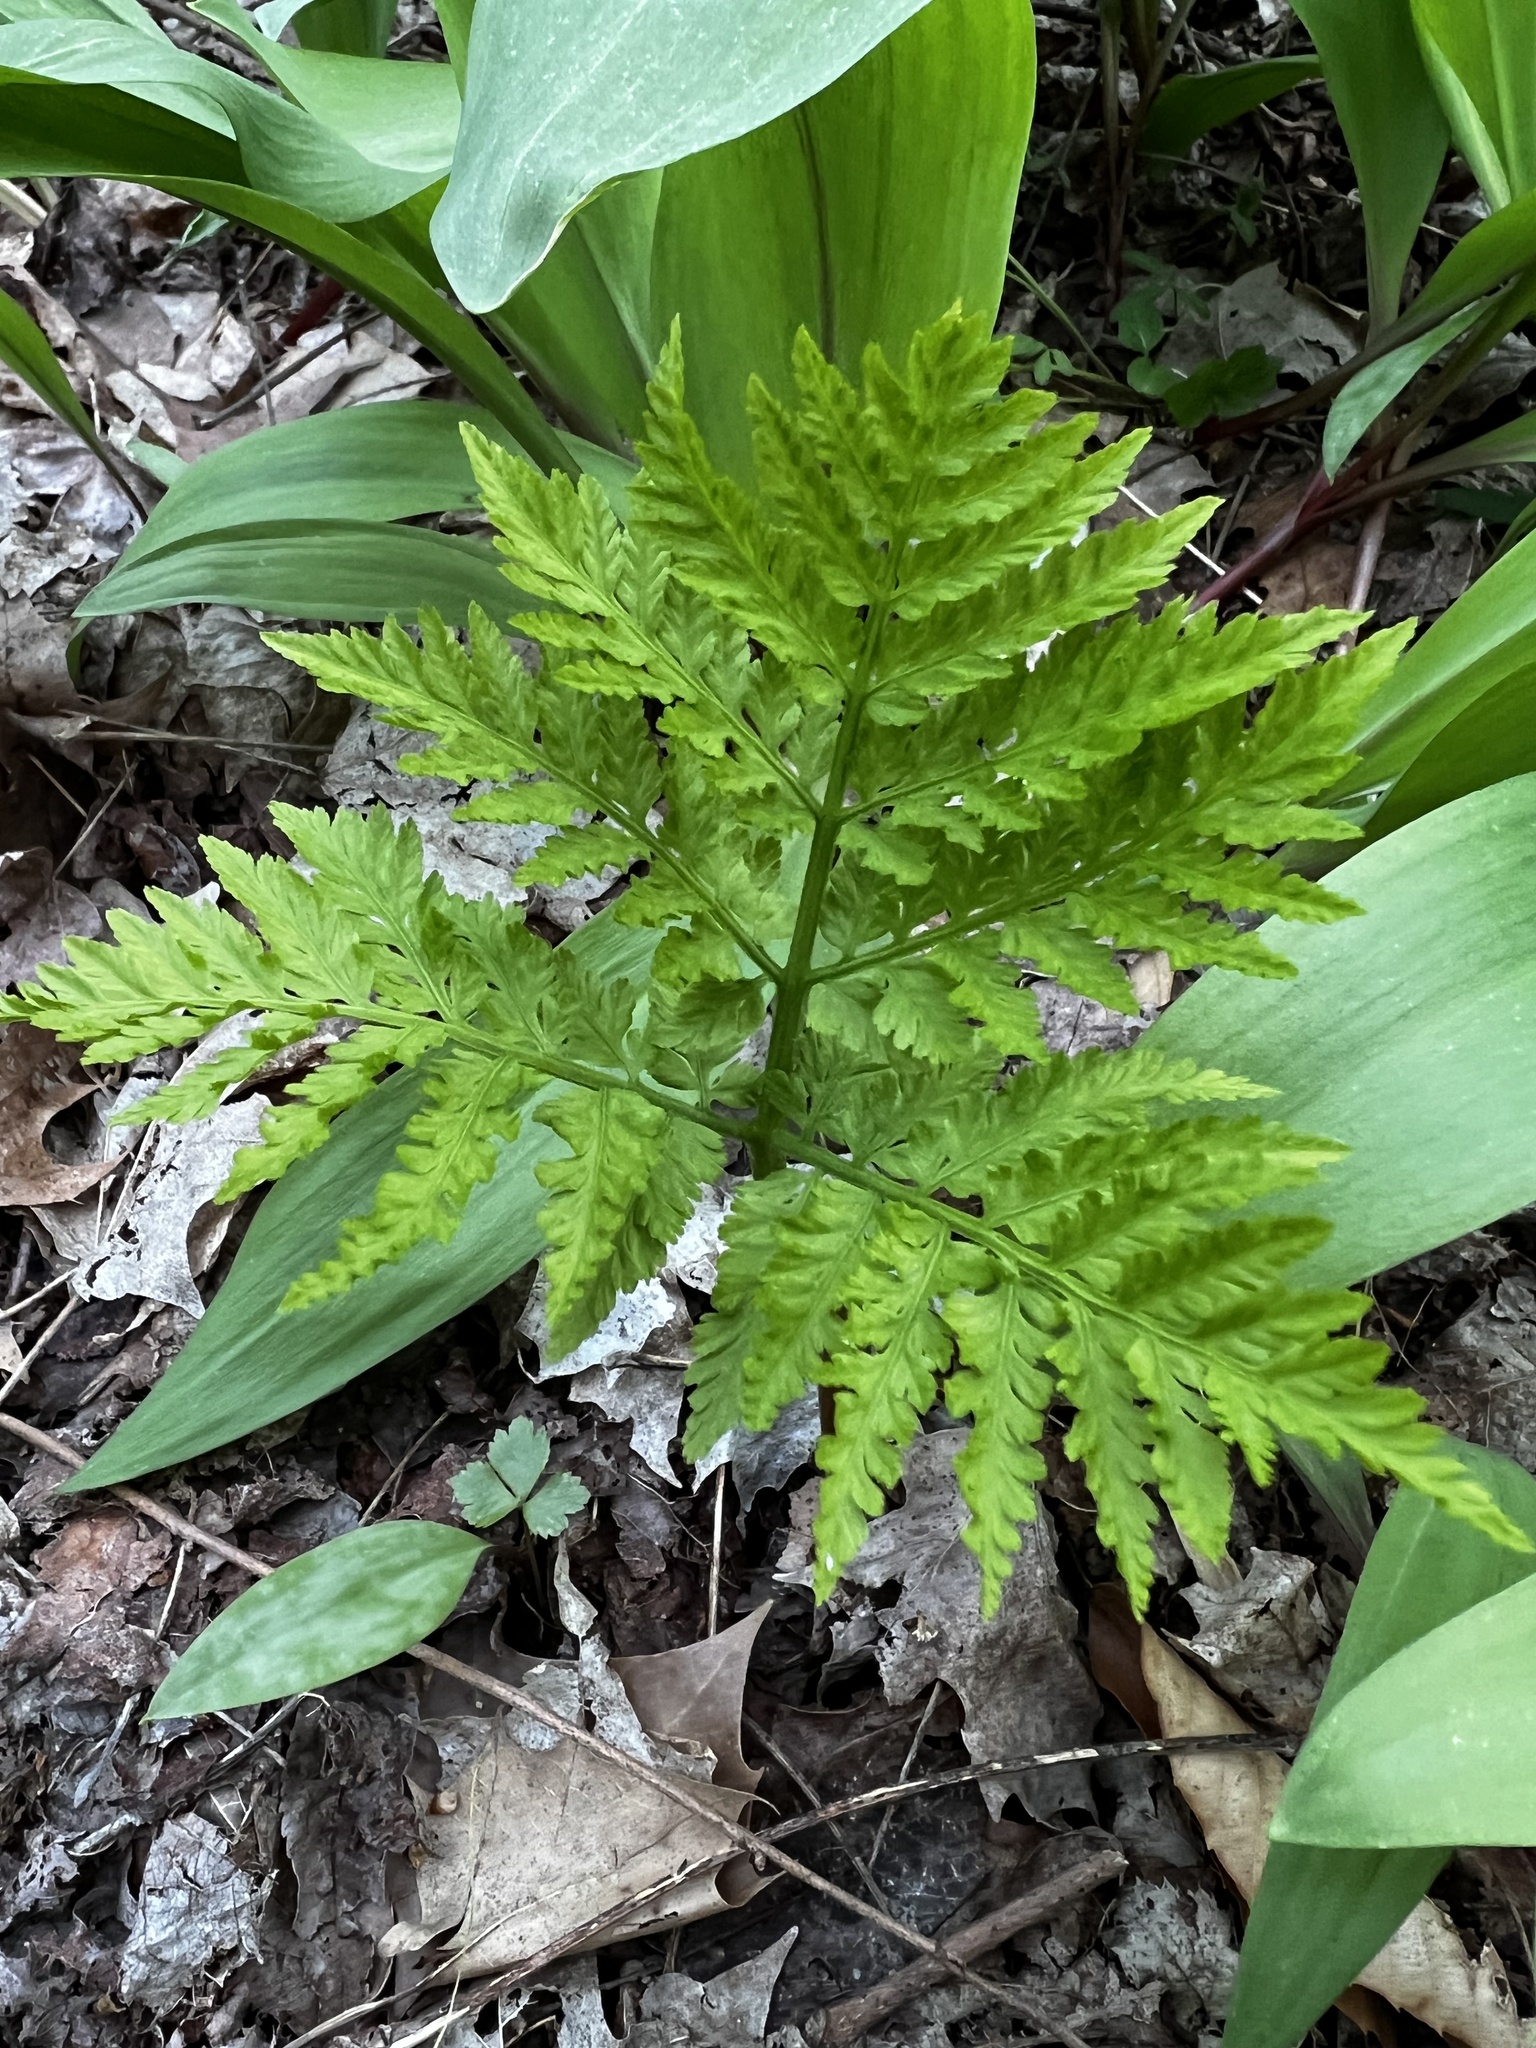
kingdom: Plantae
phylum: Tracheophyta
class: Polypodiopsida
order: Ophioglossales
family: Ophioglossaceae
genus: Botrypus
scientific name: Botrypus virginianus
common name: Common grapefern
